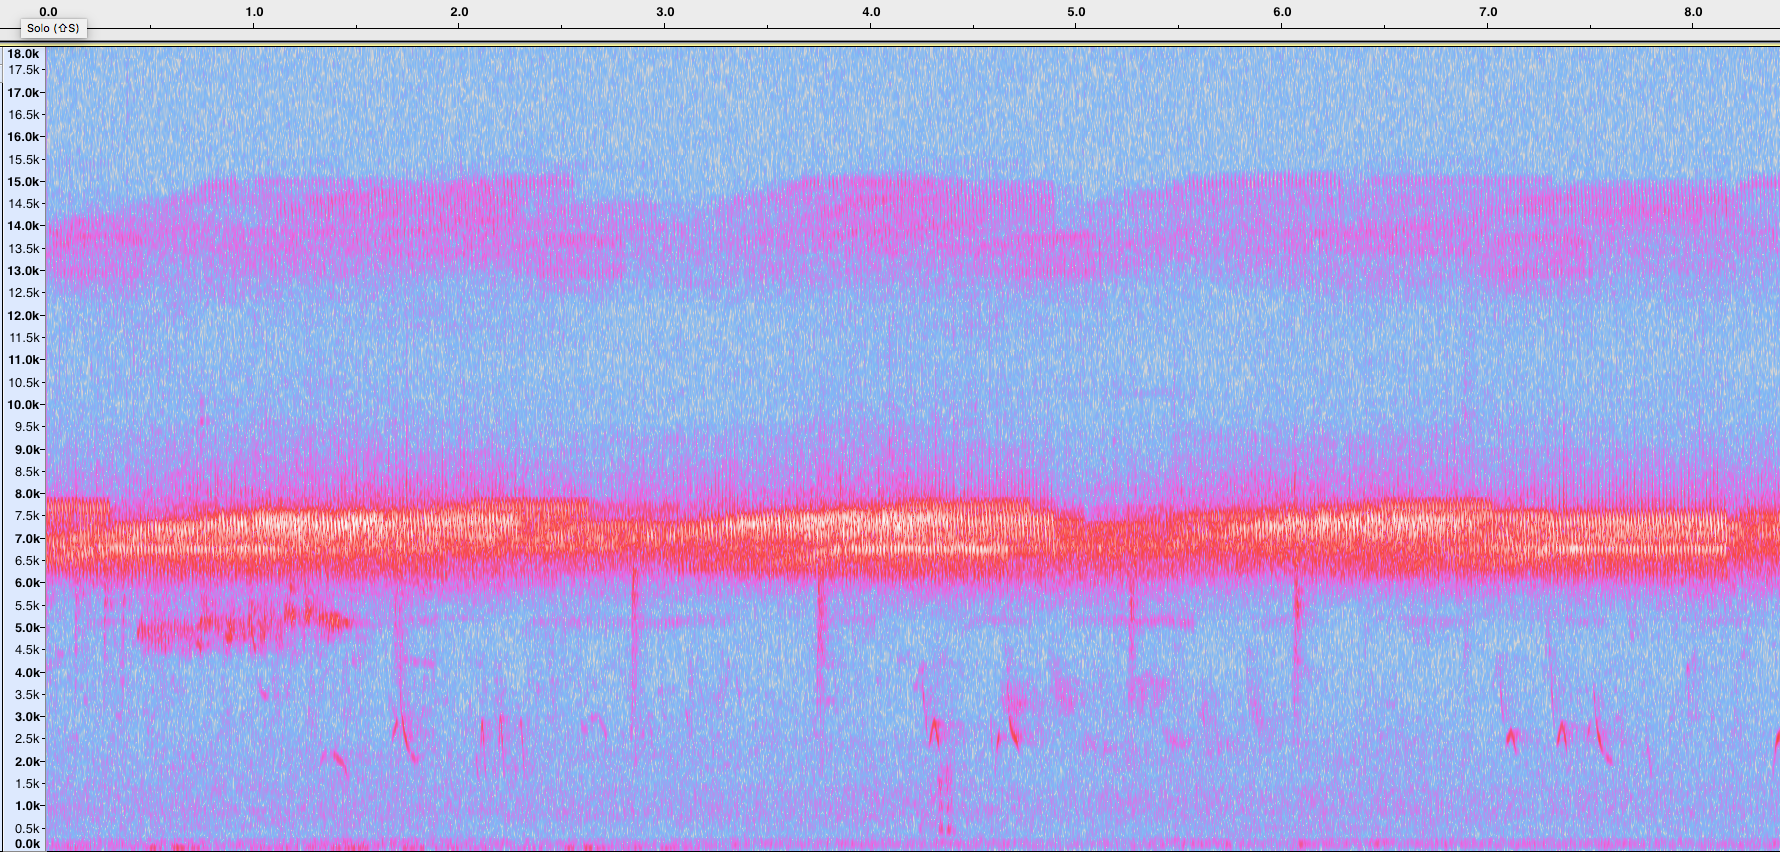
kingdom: Animalia
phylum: Arthropoda
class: Insecta
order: Orthoptera
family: Trigonidiidae
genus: Pteronemobius
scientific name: Pteronemobius heydenii
